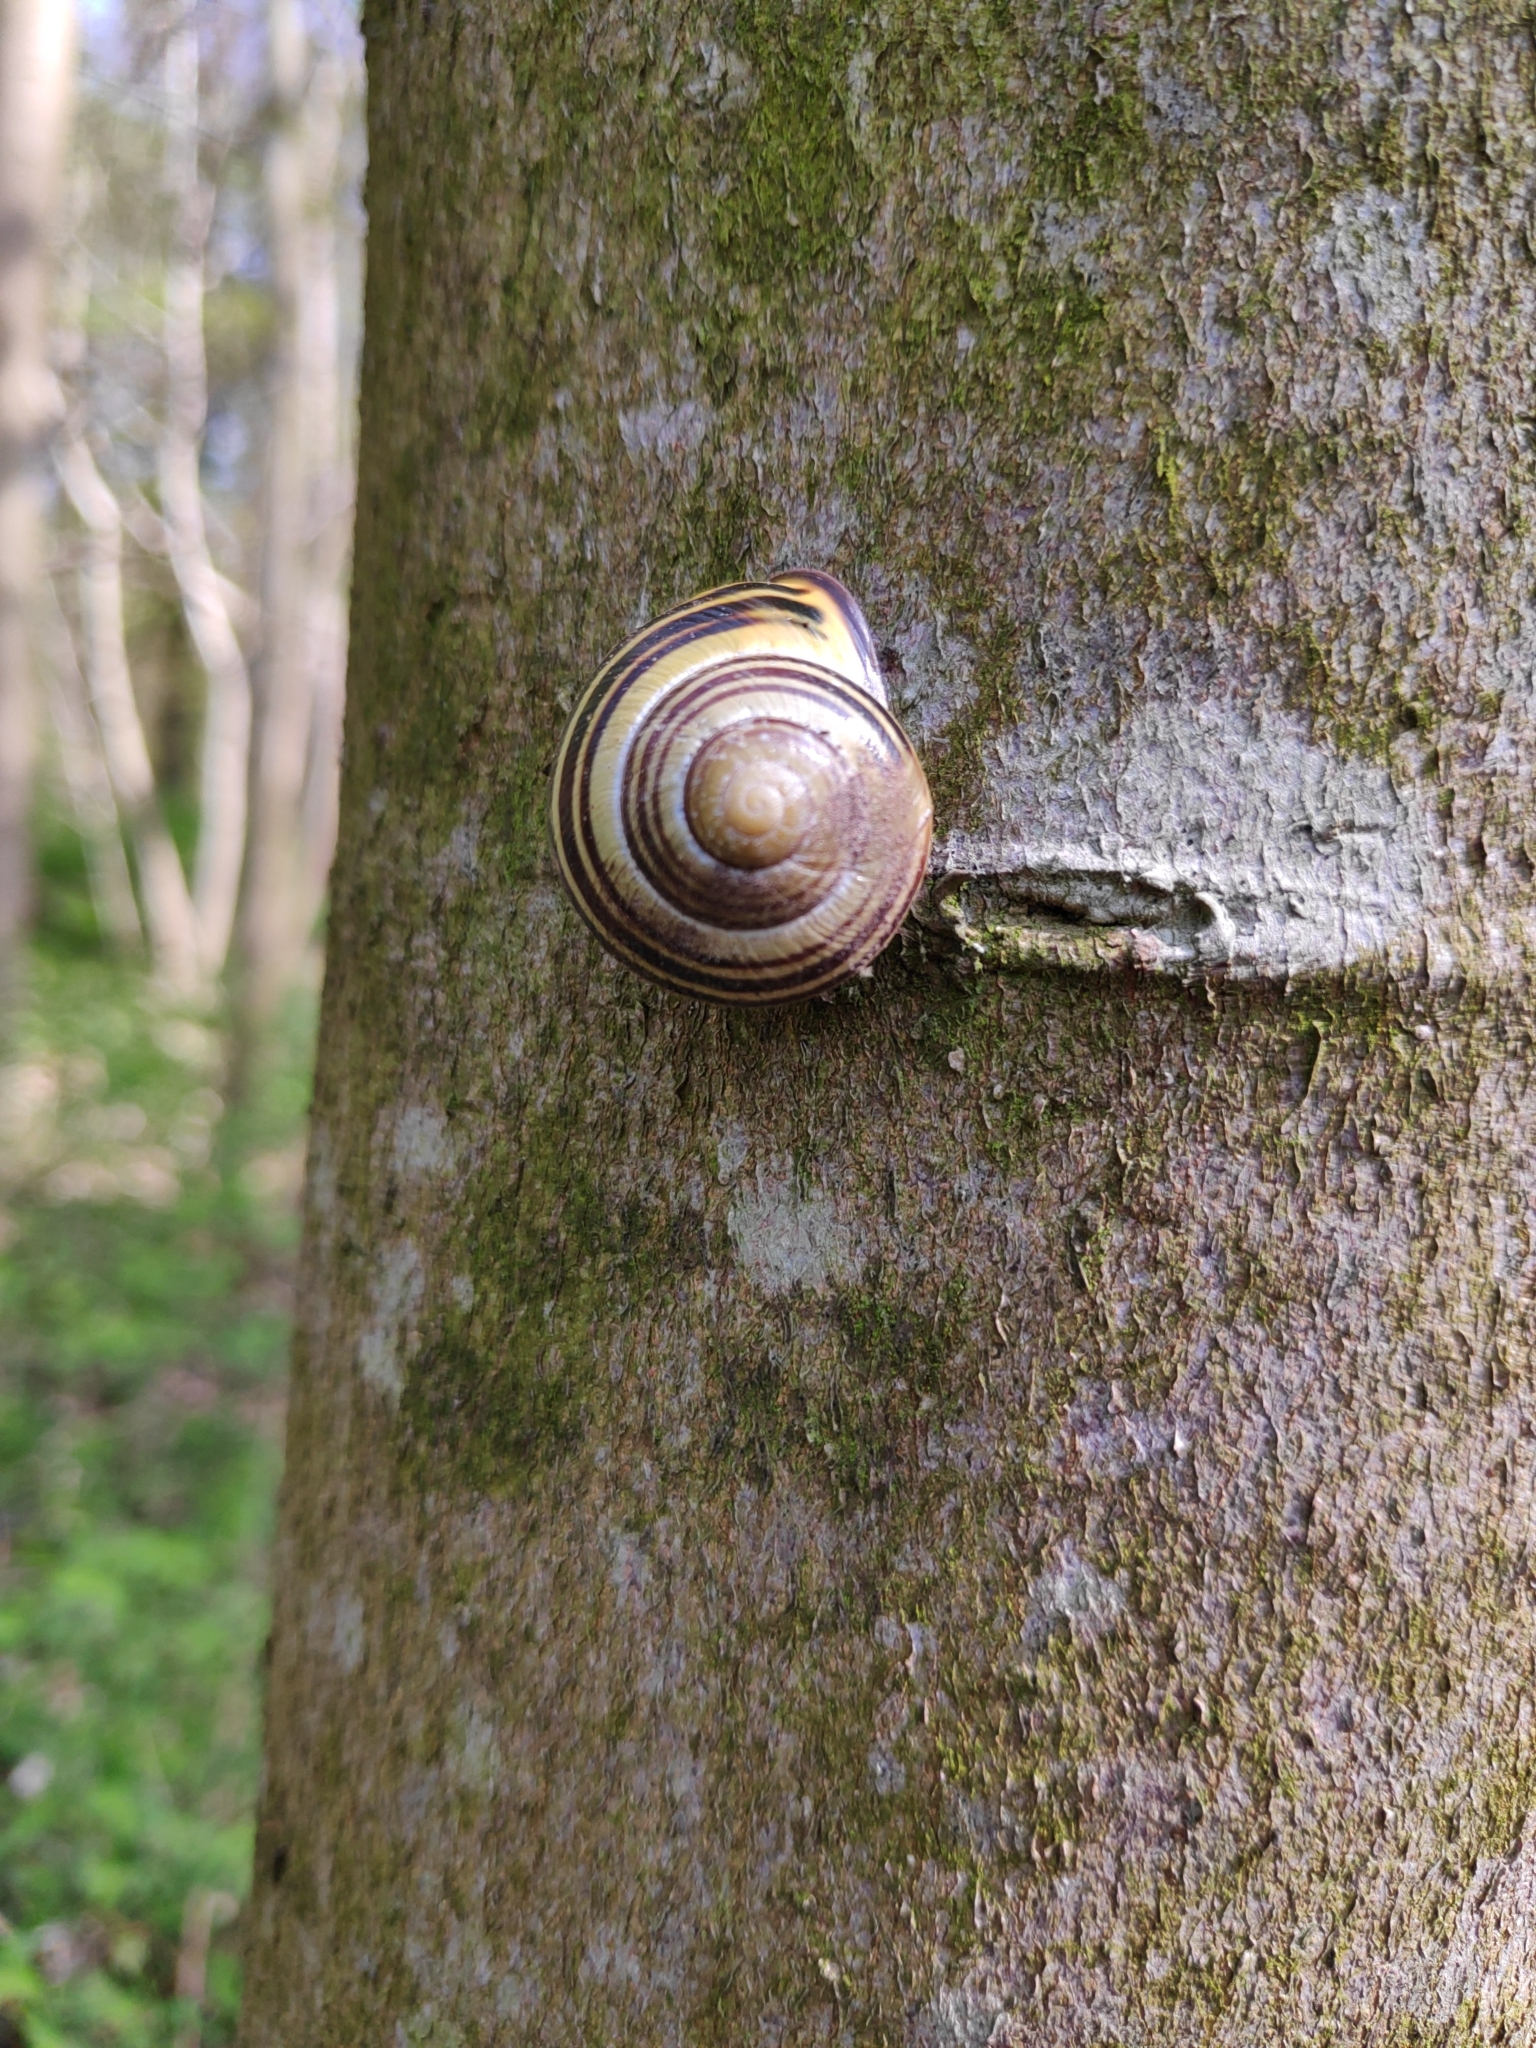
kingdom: Animalia
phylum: Mollusca
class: Gastropoda
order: Stylommatophora
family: Helicidae
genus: Cepaea
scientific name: Cepaea nemoralis
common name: Grovesnail
